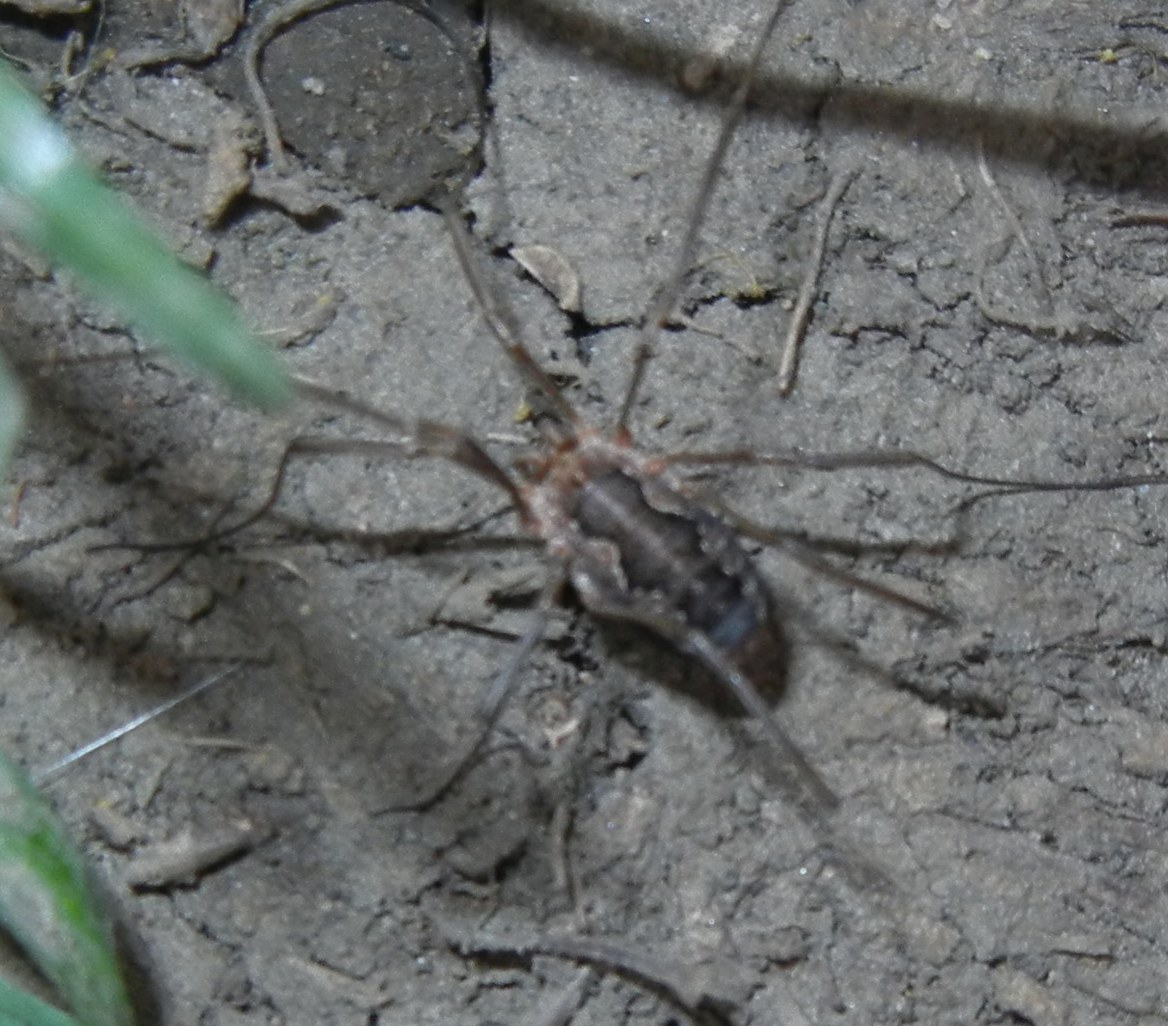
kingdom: Animalia
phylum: Arthropoda
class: Arachnida
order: Opiliones
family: Phalangiidae
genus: Phalangium
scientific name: Phalangium opilio
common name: Daddy longleg
